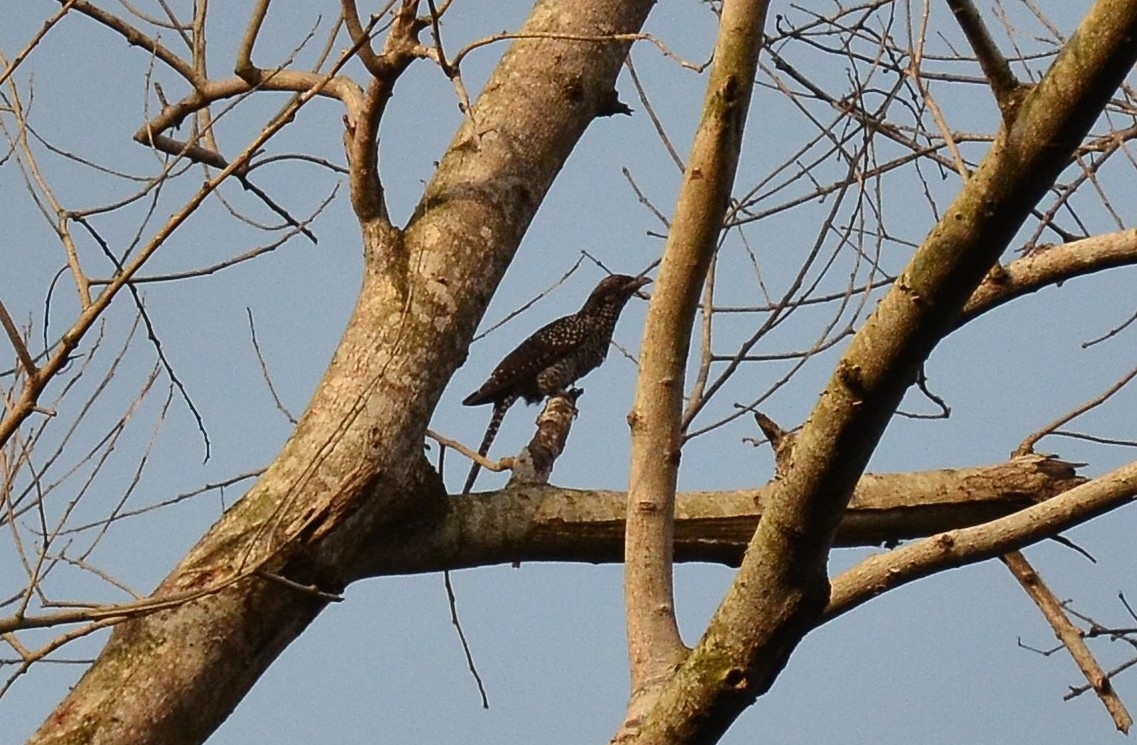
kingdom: Animalia
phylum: Chordata
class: Aves
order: Cuculiformes
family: Cuculidae
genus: Eudynamys
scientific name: Eudynamys scolopaceus
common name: Asian koel
